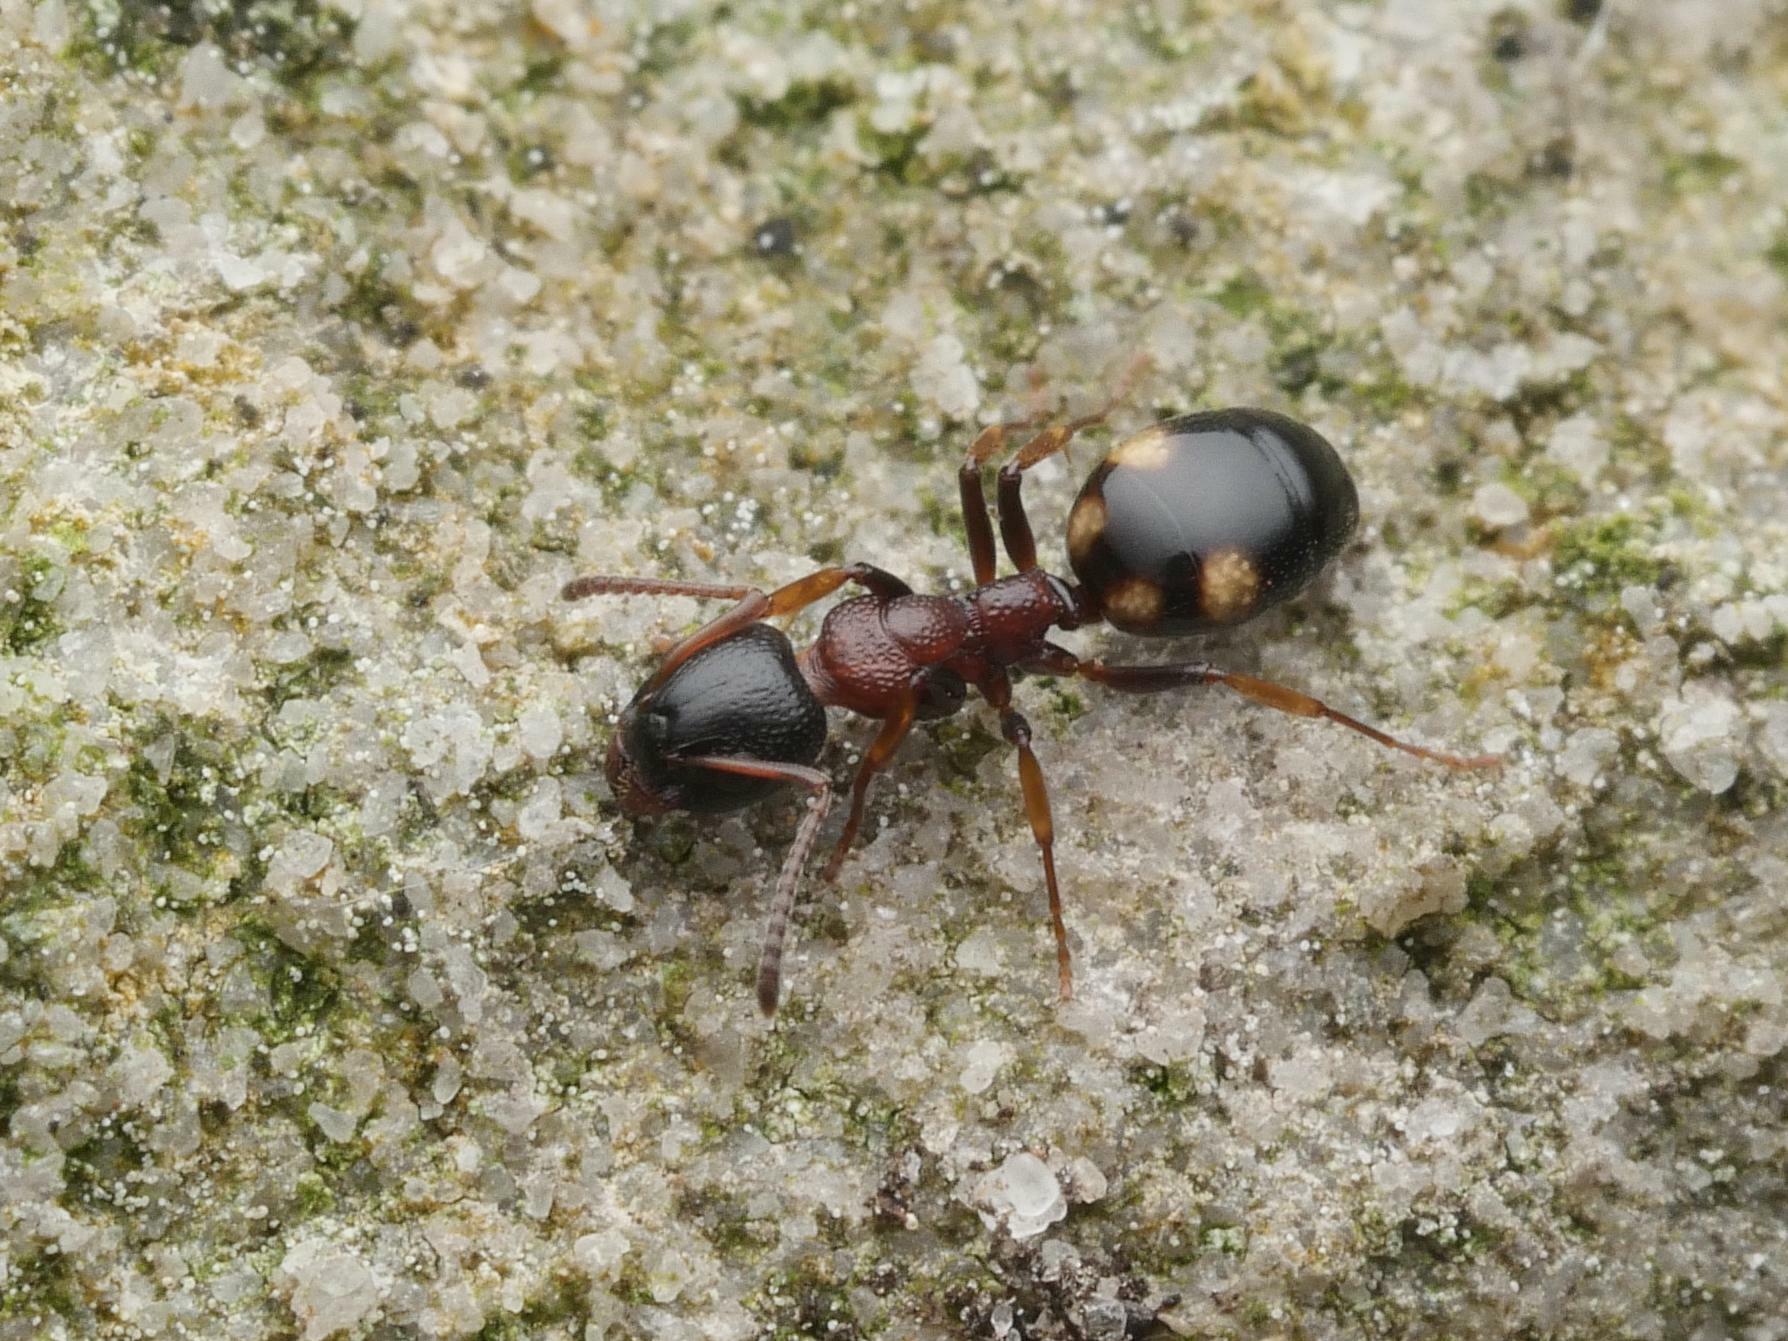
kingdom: Animalia
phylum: Arthropoda
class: Insecta
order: Hymenoptera
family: Formicidae
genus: Dolichoderus
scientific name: Dolichoderus quadripunctatus
